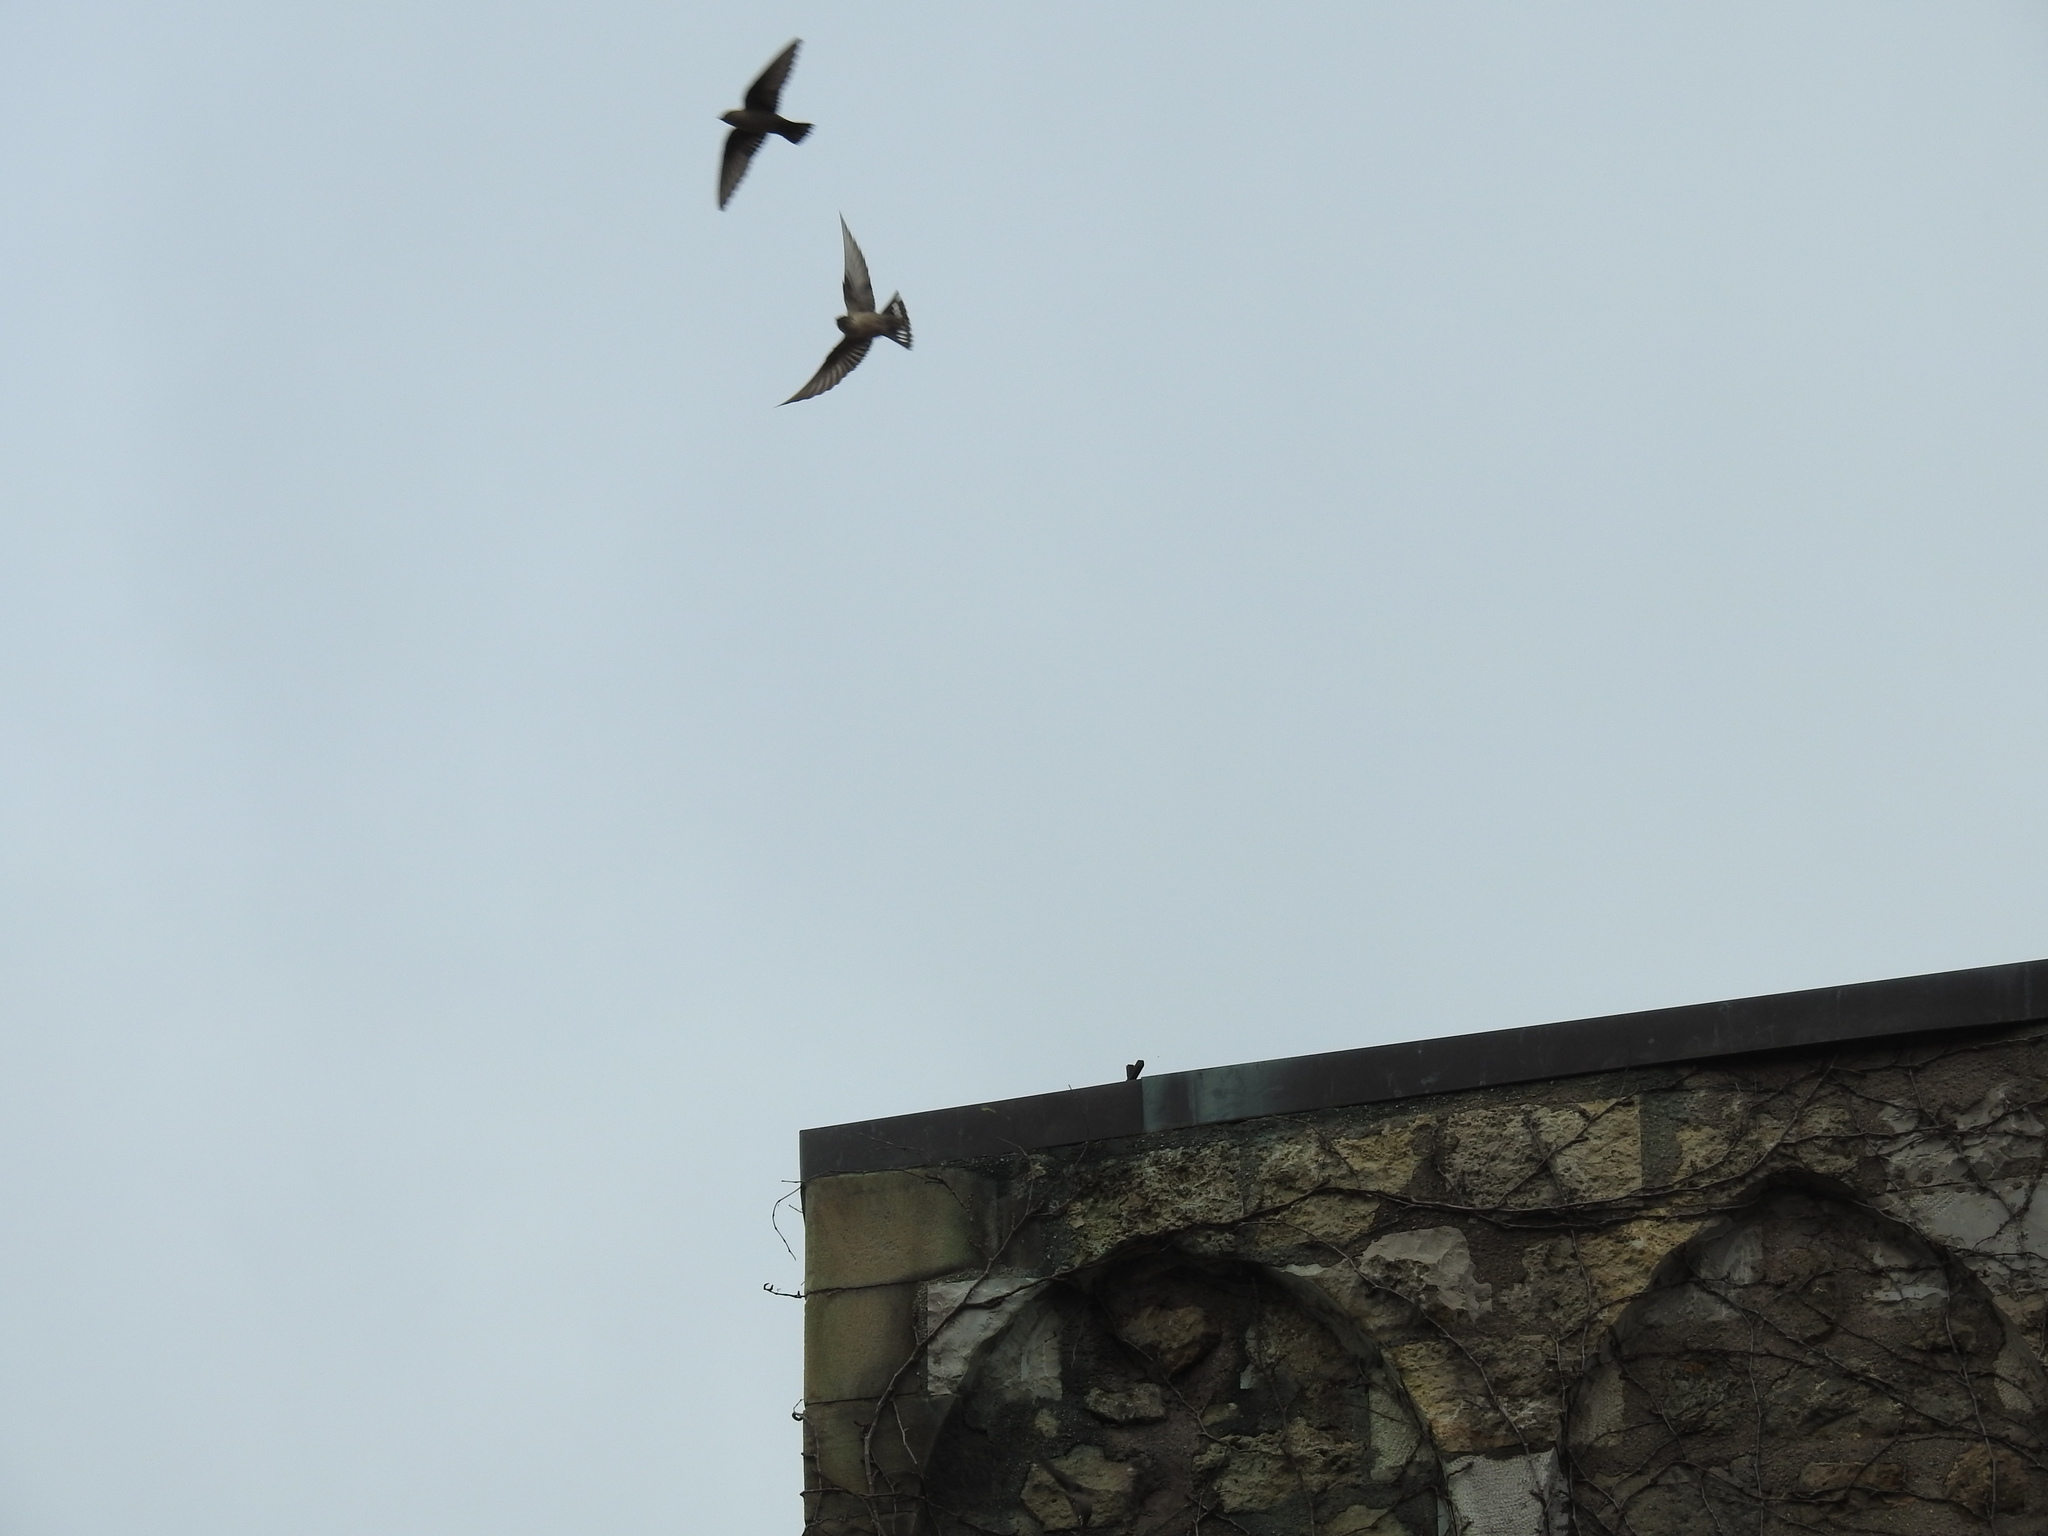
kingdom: Animalia
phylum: Chordata
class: Aves
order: Passeriformes
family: Hirundinidae
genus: Ptyonoprogne
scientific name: Ptyonoprogne rupestris
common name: Eurasian crag martin
